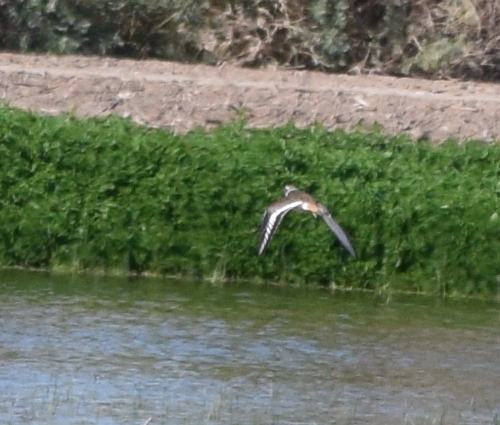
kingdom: Animalia
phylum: Chordata
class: Aves
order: Charadriiformes
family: Charadriidae
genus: Charadrius
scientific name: Charadrius vociferus
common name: Killdeer
